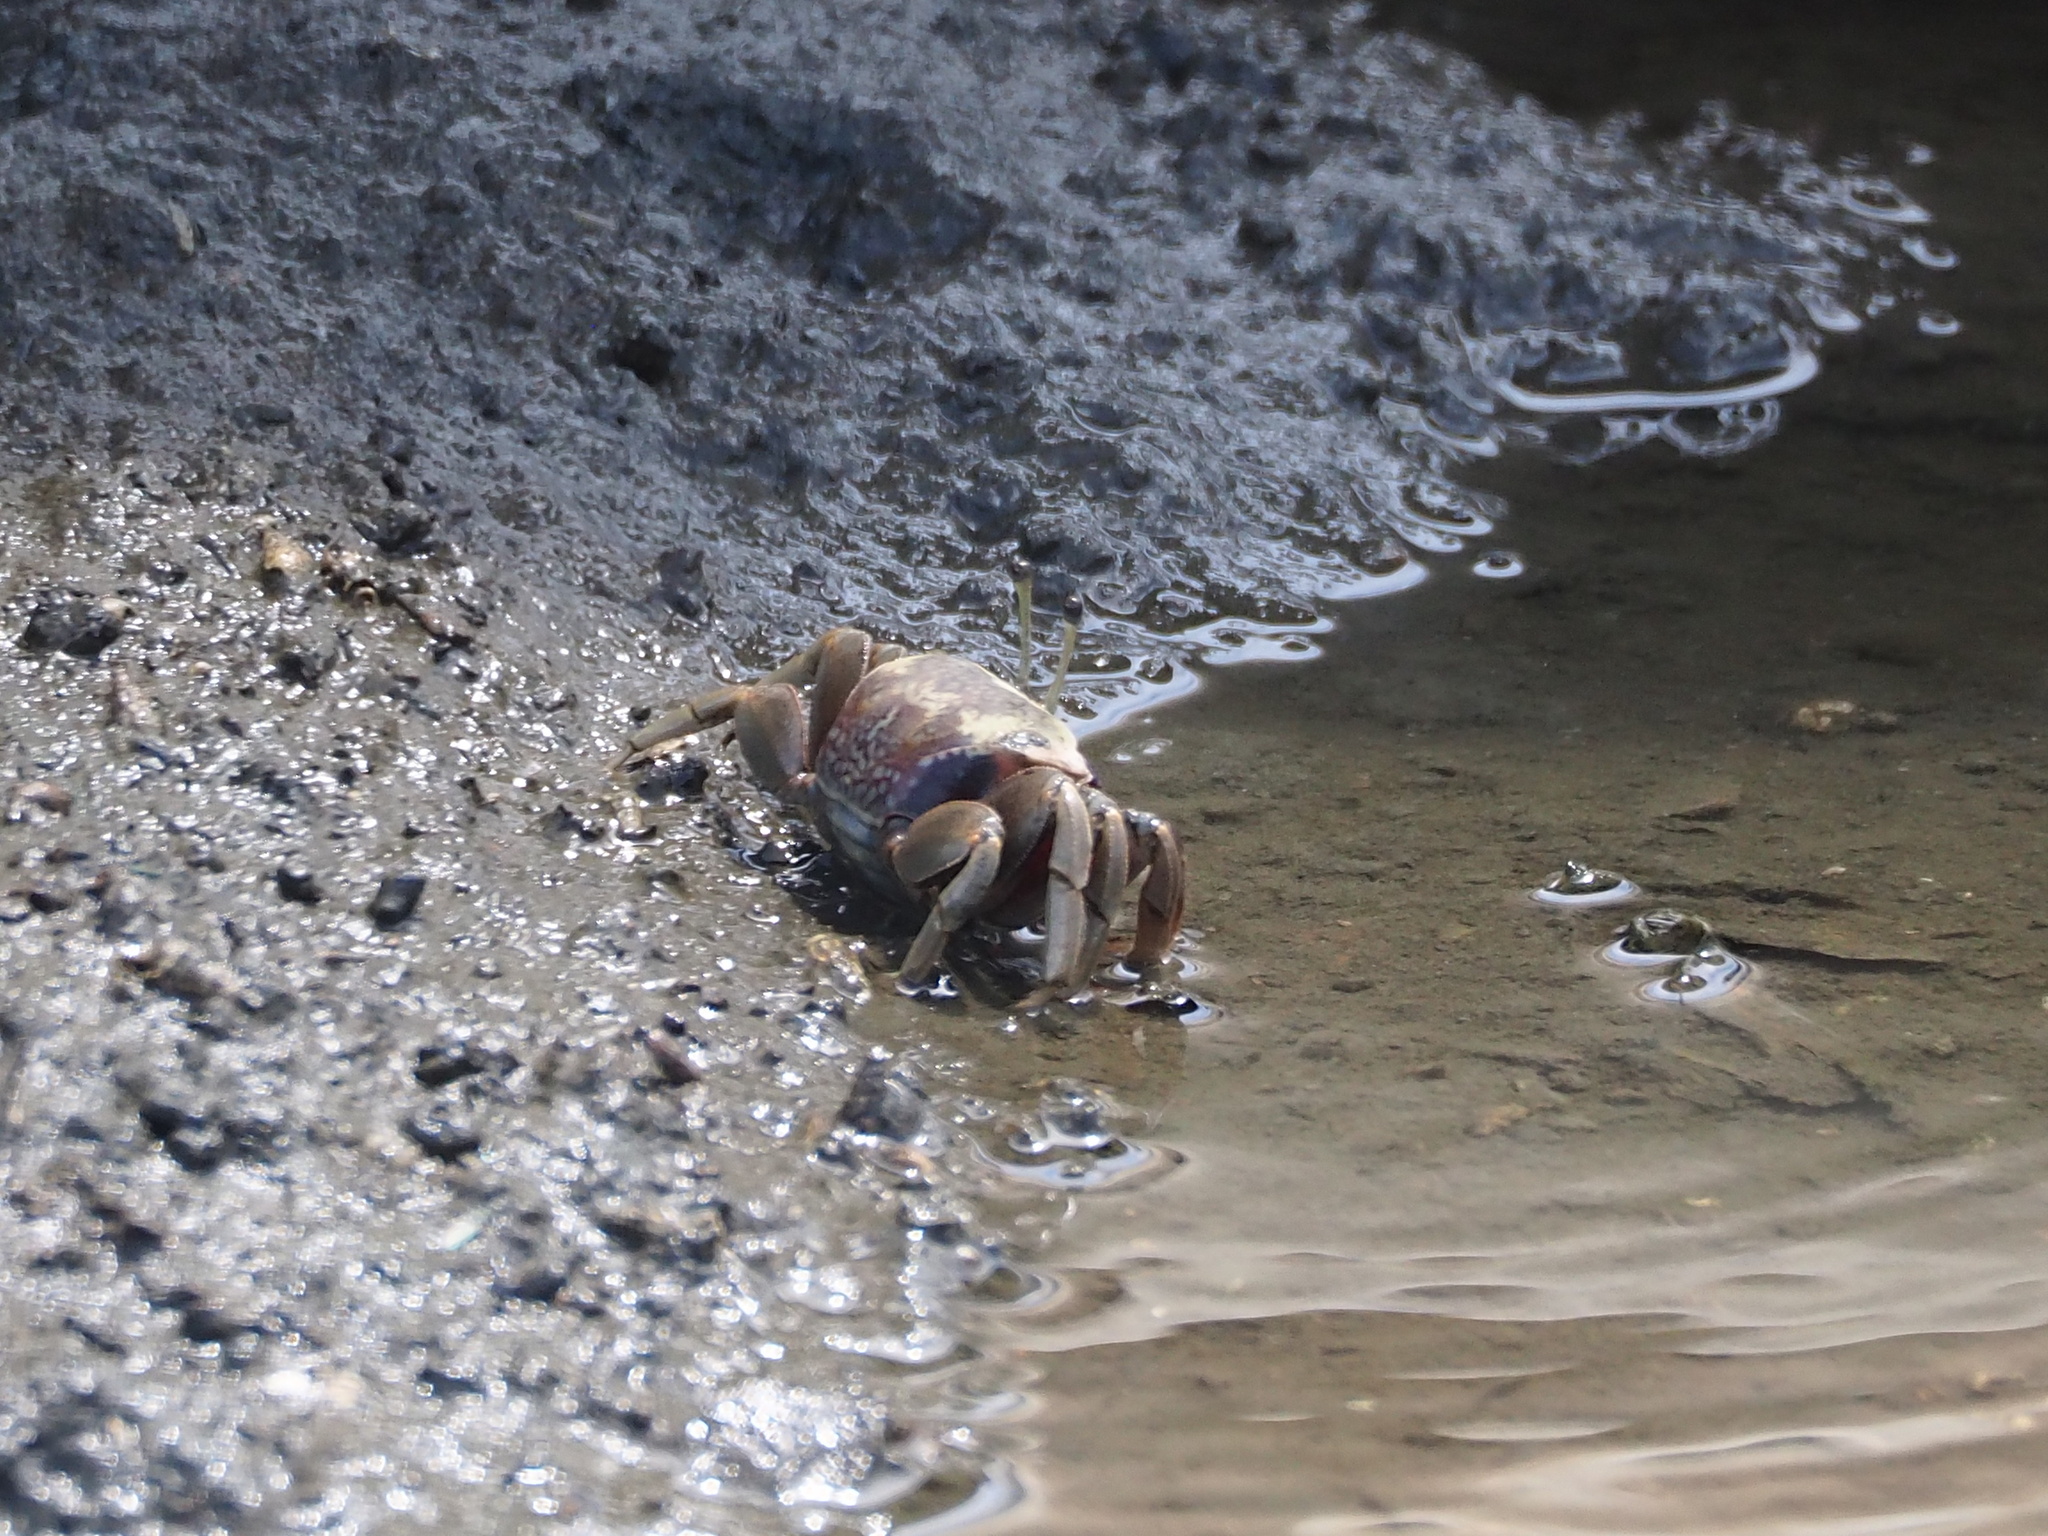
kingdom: Animalia
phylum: Arthropoda
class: Malacostraca
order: Decapoda
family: Ocypodidae
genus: Tubuca
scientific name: Tubuca arcuata
